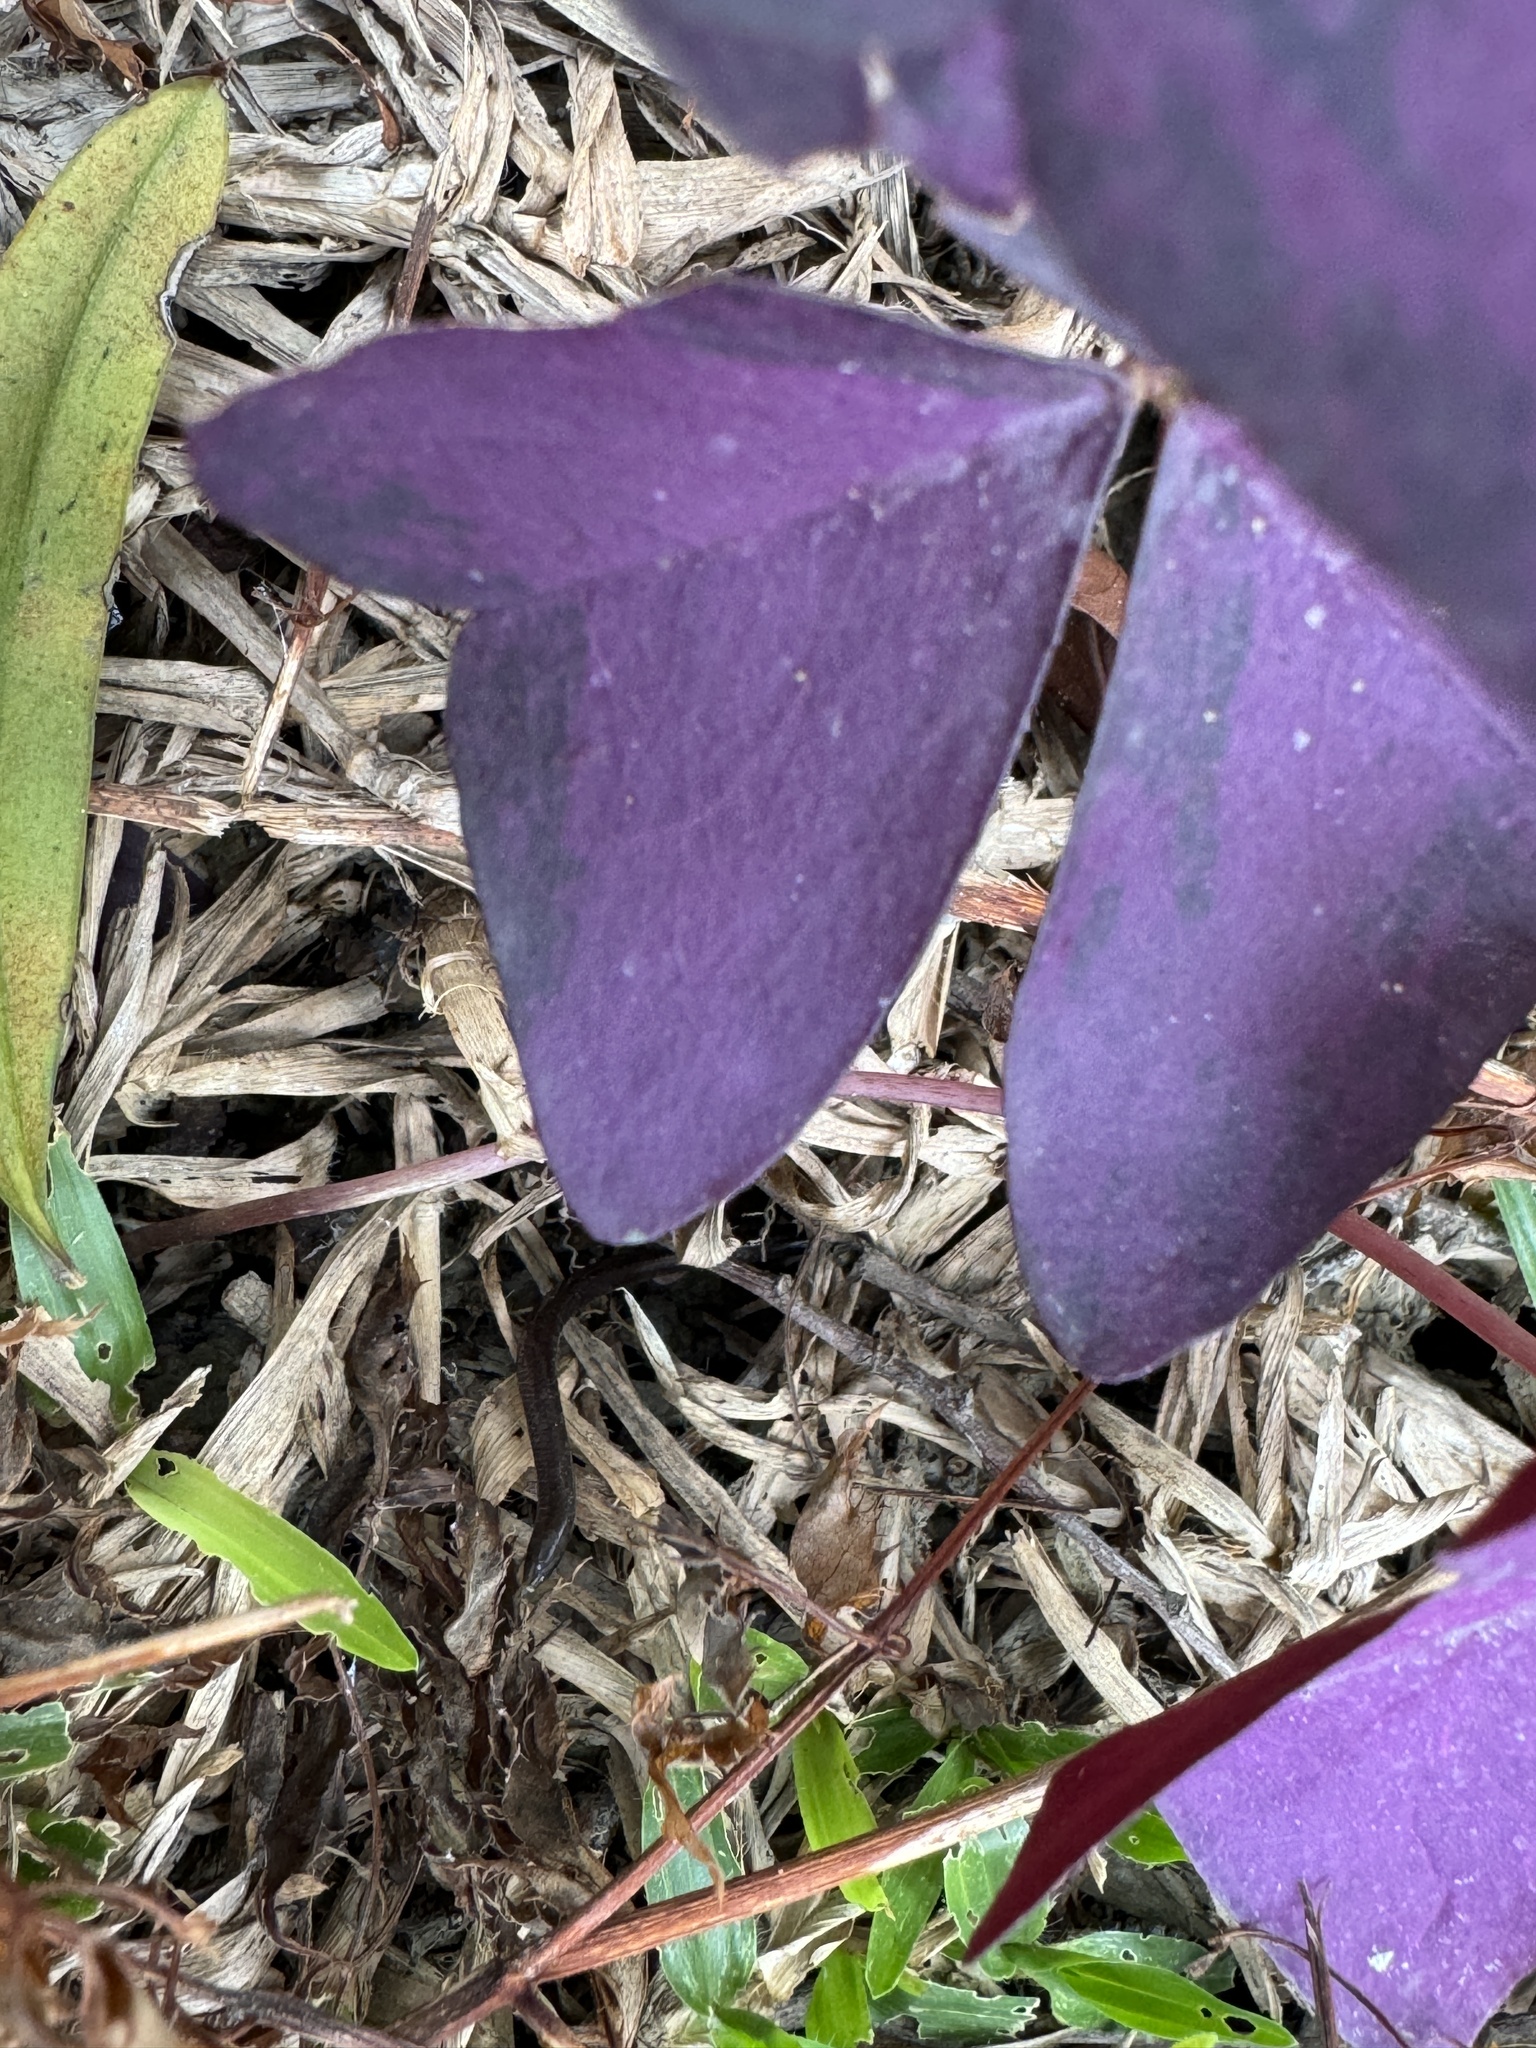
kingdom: Animalia
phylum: Chordata
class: Squamata
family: Typhlopidae
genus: Indotyphlops
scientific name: Indotyphlops braminus
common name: Brahminy blindsnake
